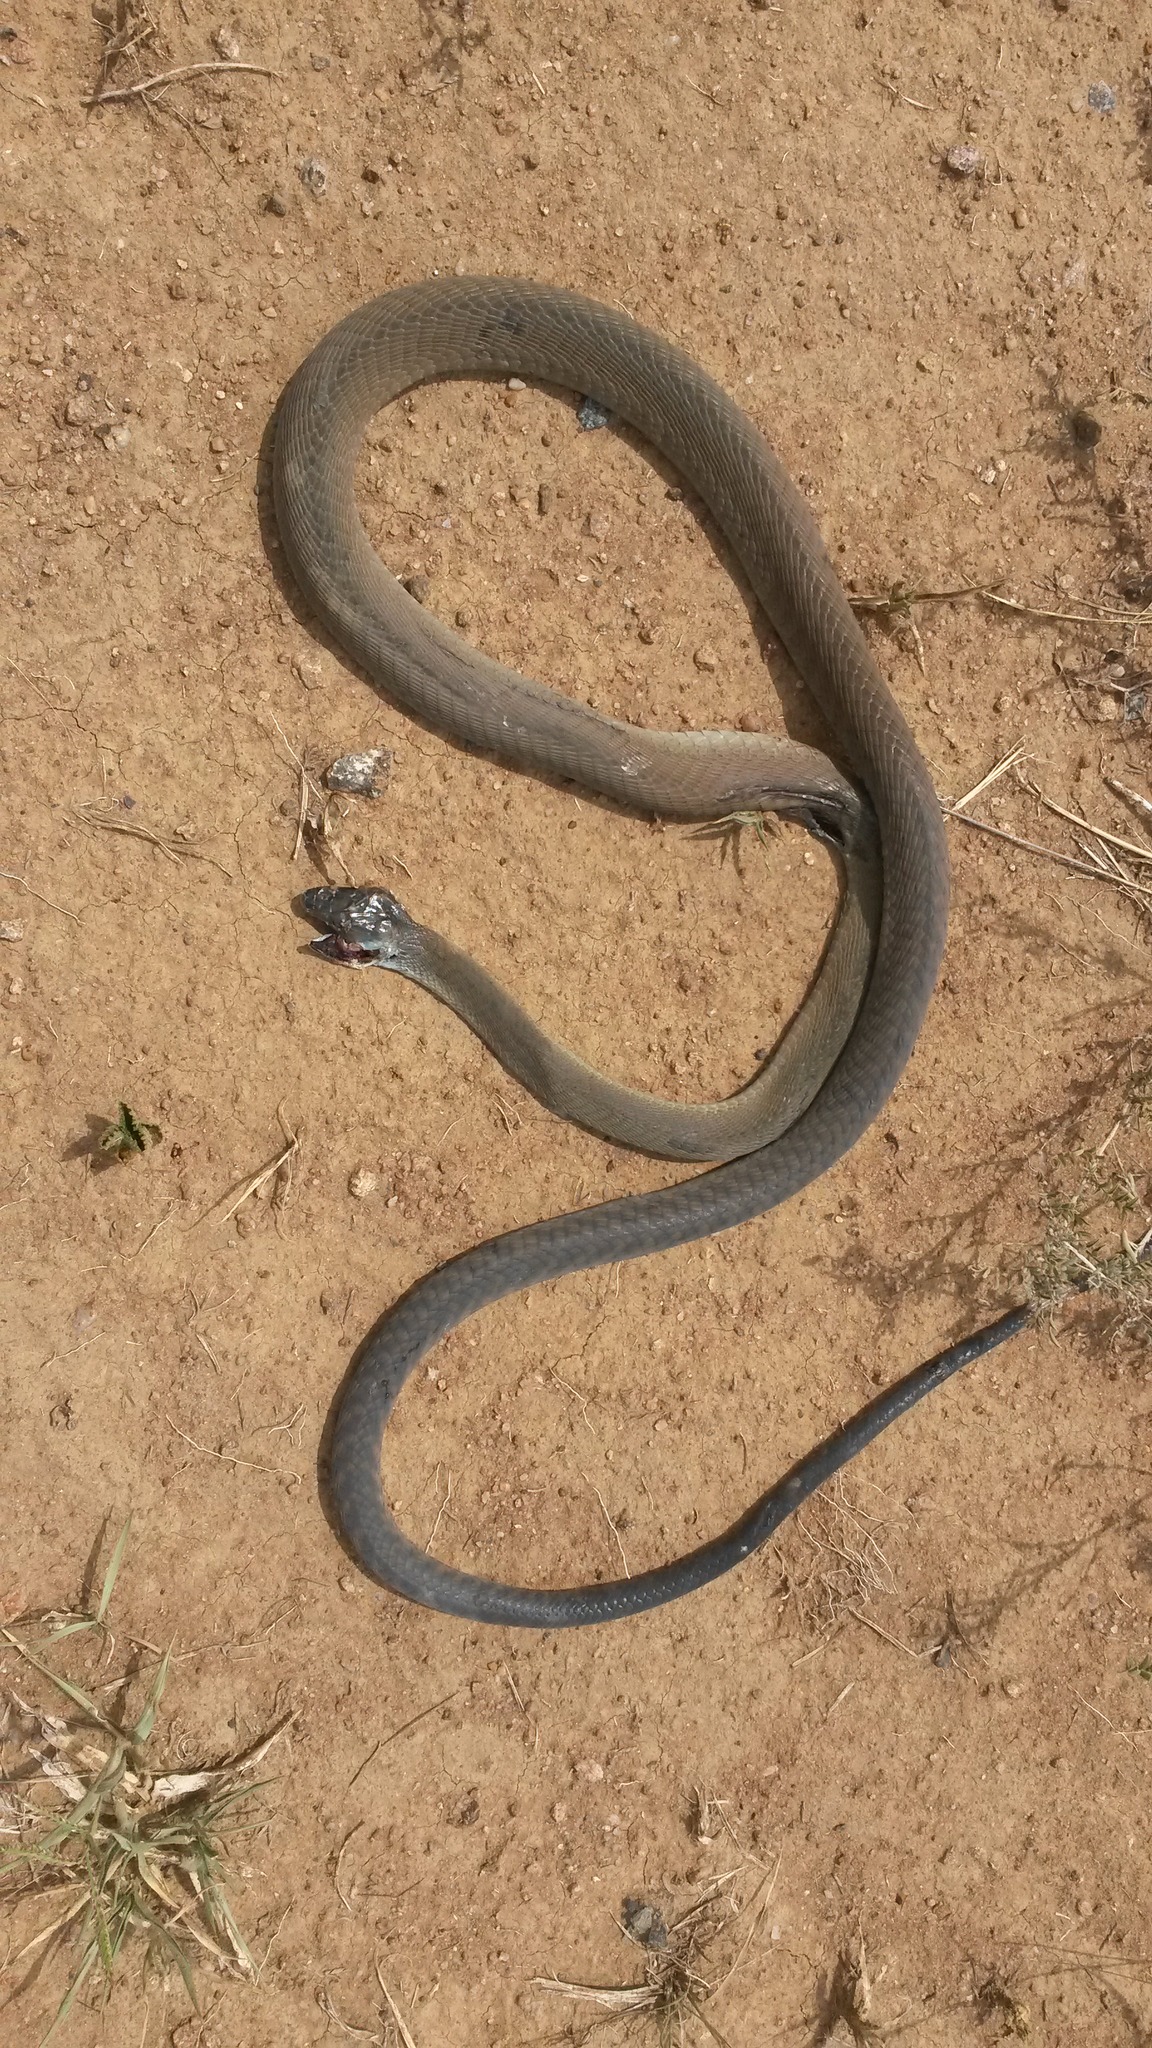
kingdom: Animalia
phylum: Chordata
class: Squamata
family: Elapidae
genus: Dendroaspis
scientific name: Dendroaspis polylepis
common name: Black mamba
